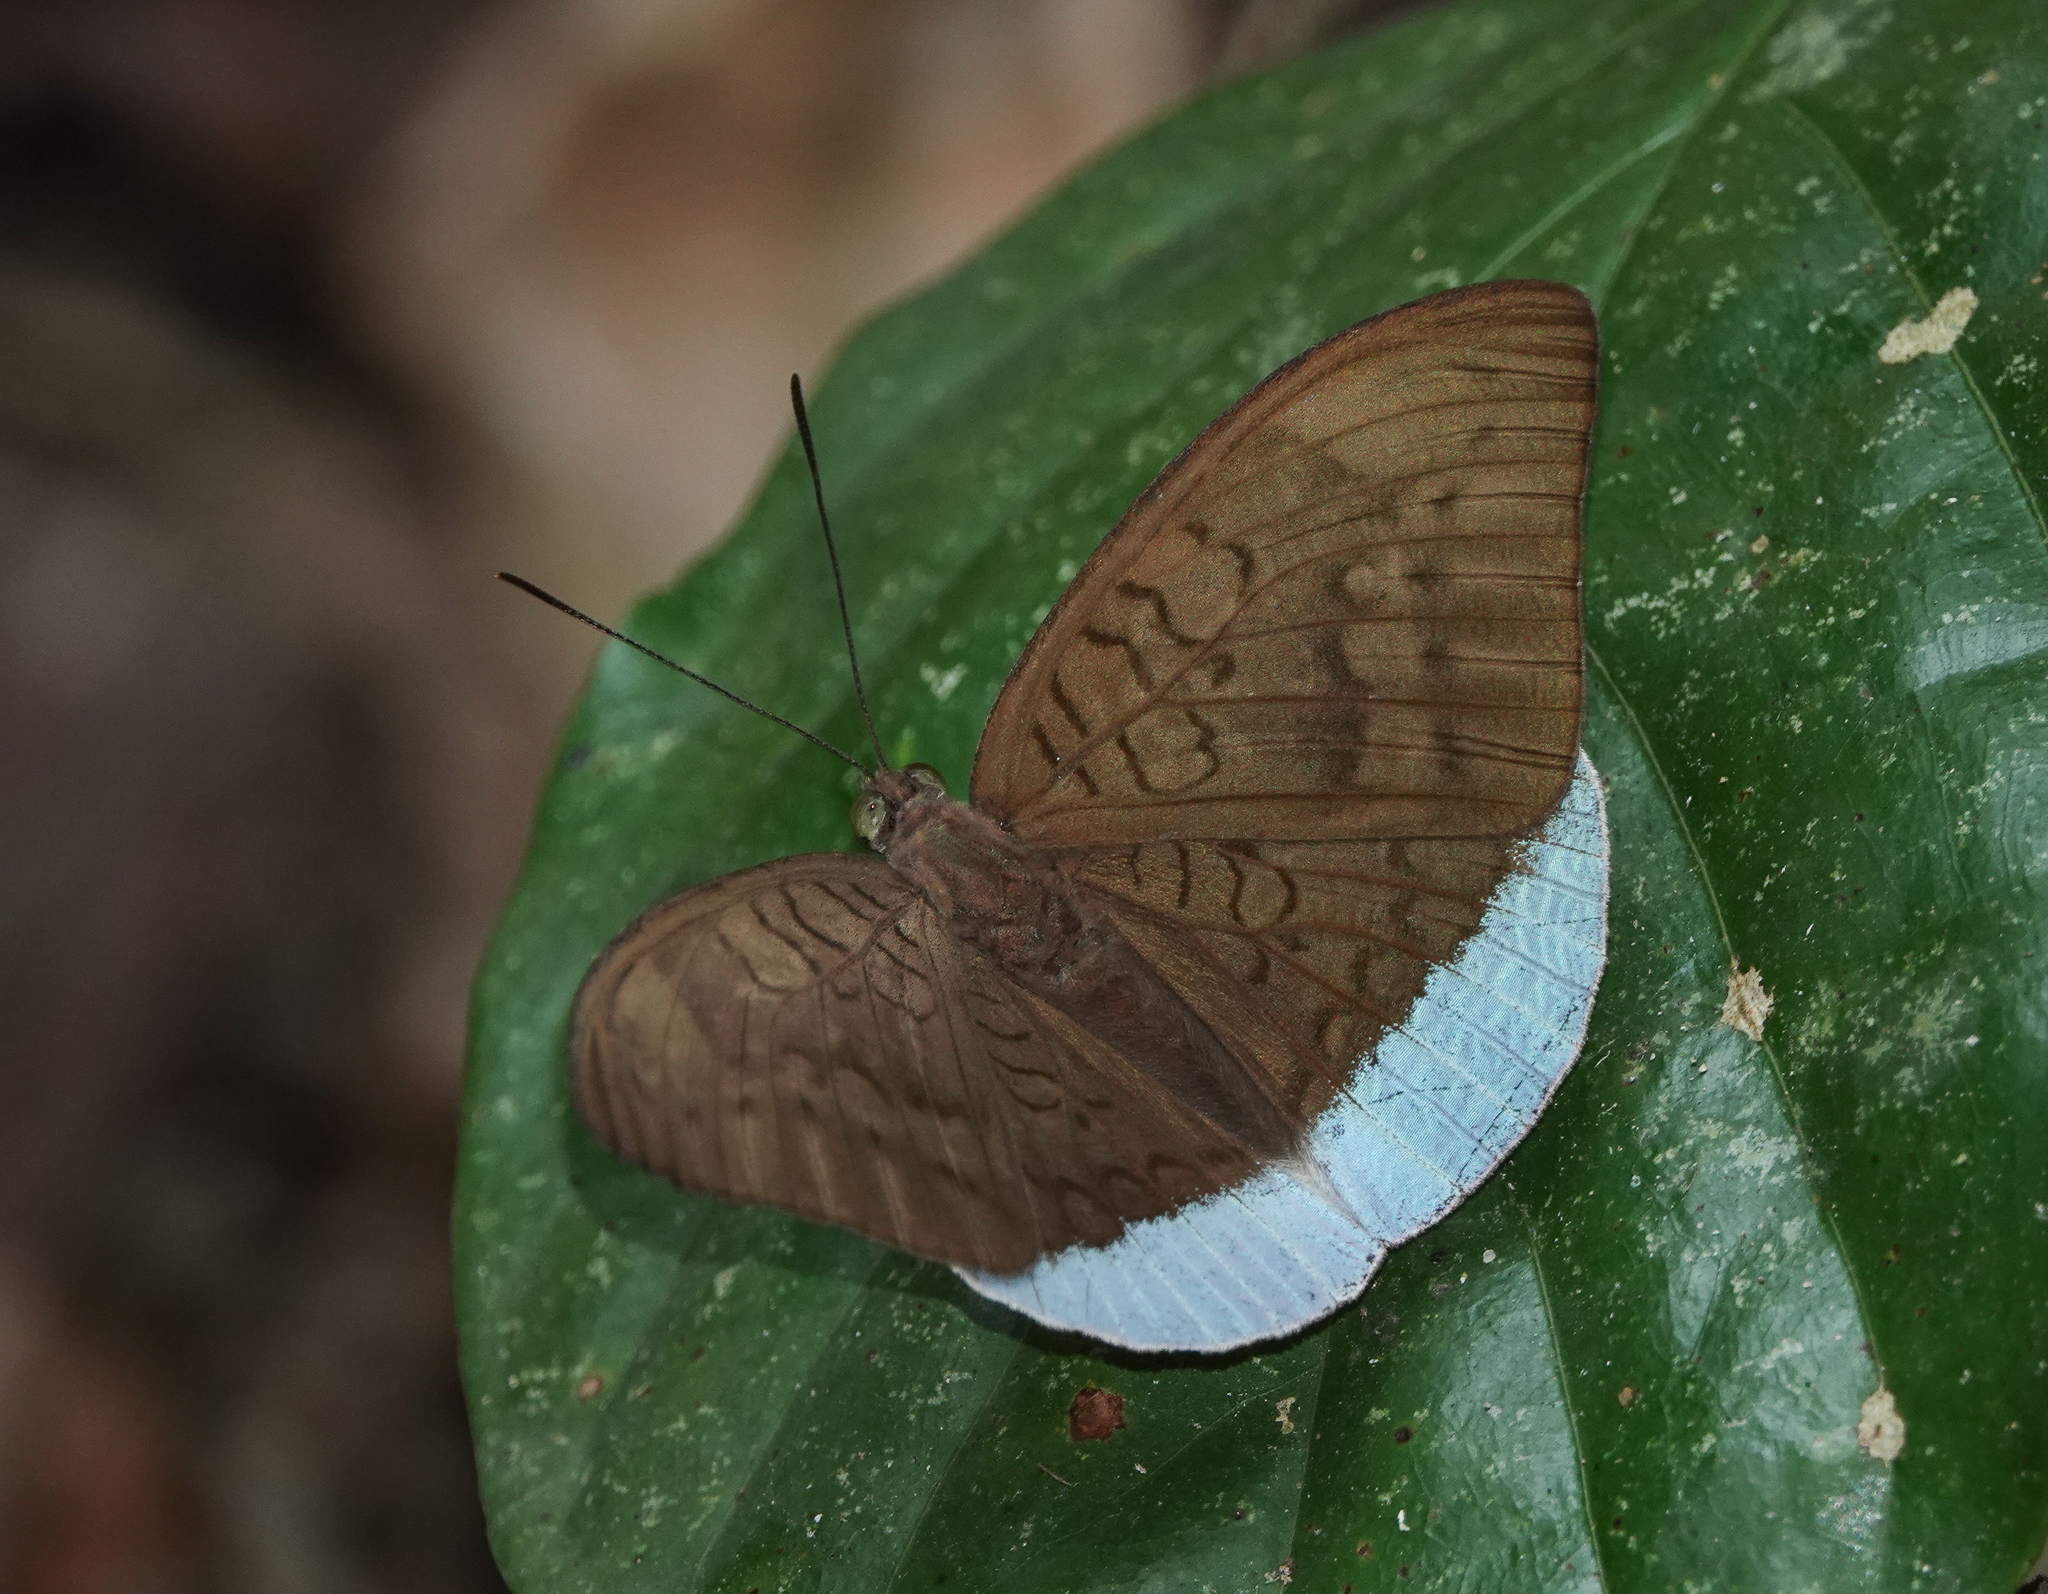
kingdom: Animalia
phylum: Arthropoda
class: Insecta
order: Lepidoptera
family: Nymphalidae
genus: Tanaecia
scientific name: Tanaecia julii
